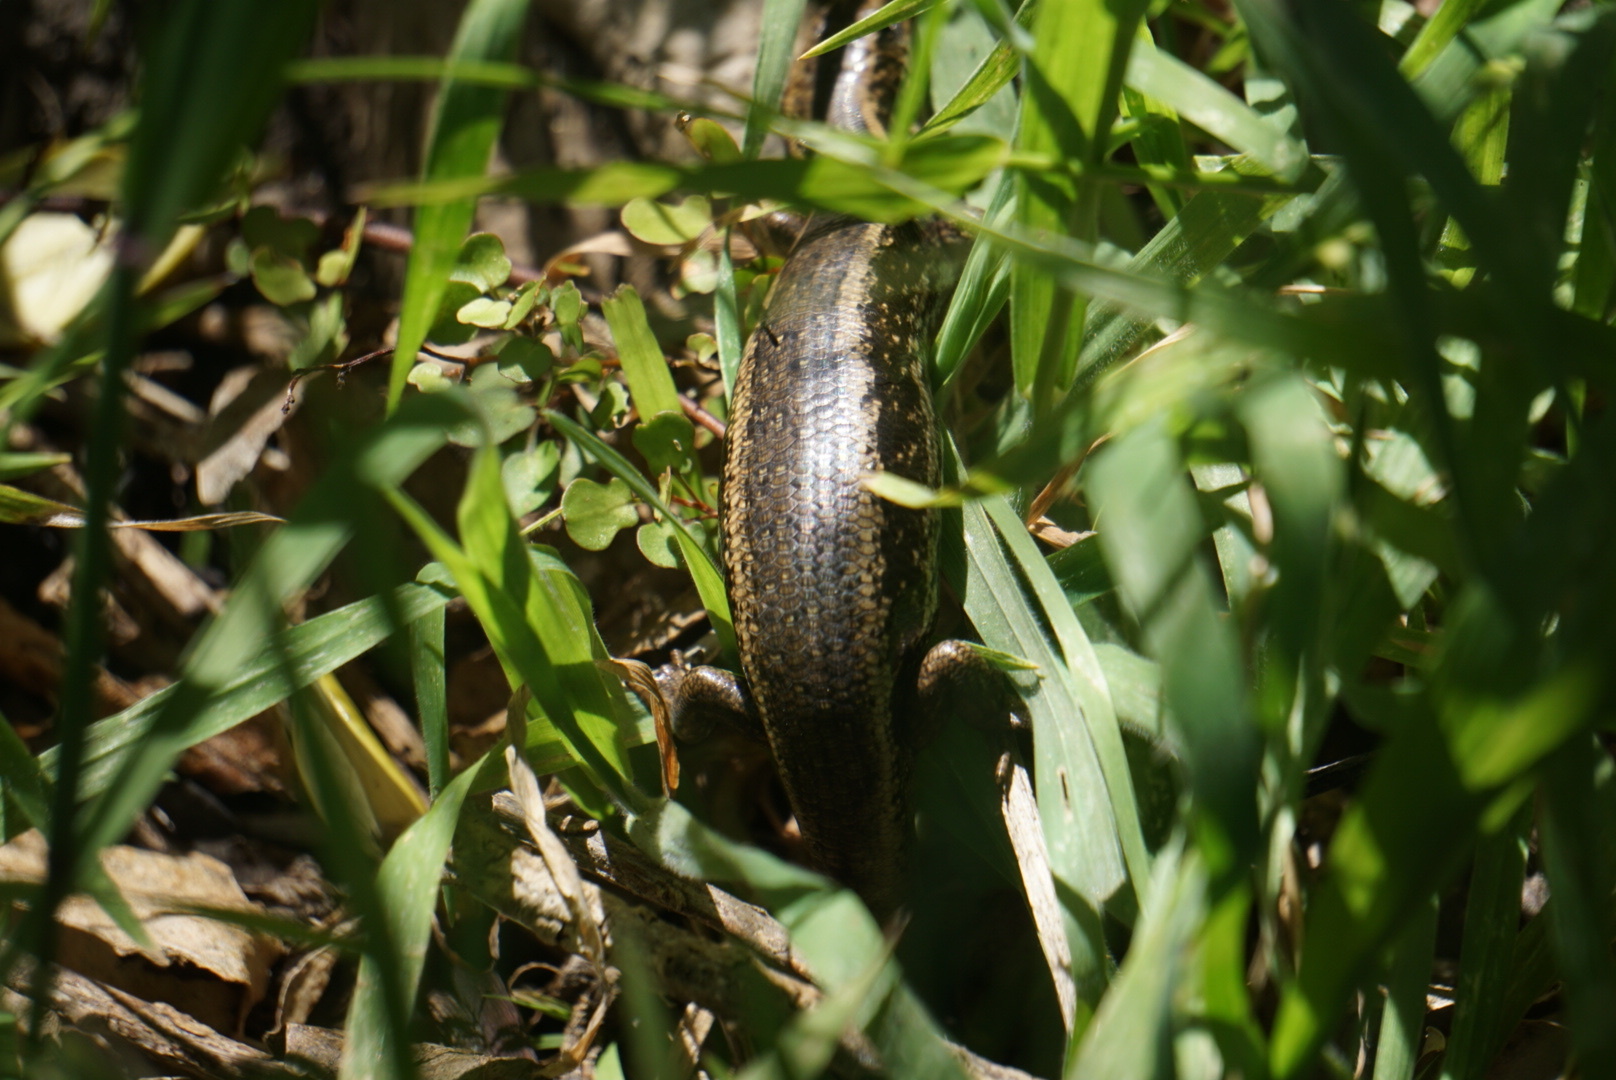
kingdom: Animalia
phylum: Chordata
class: Squamata
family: Scincidae
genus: Oligosoma
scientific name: Oligosoma kokowai
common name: Northern spotted skink
